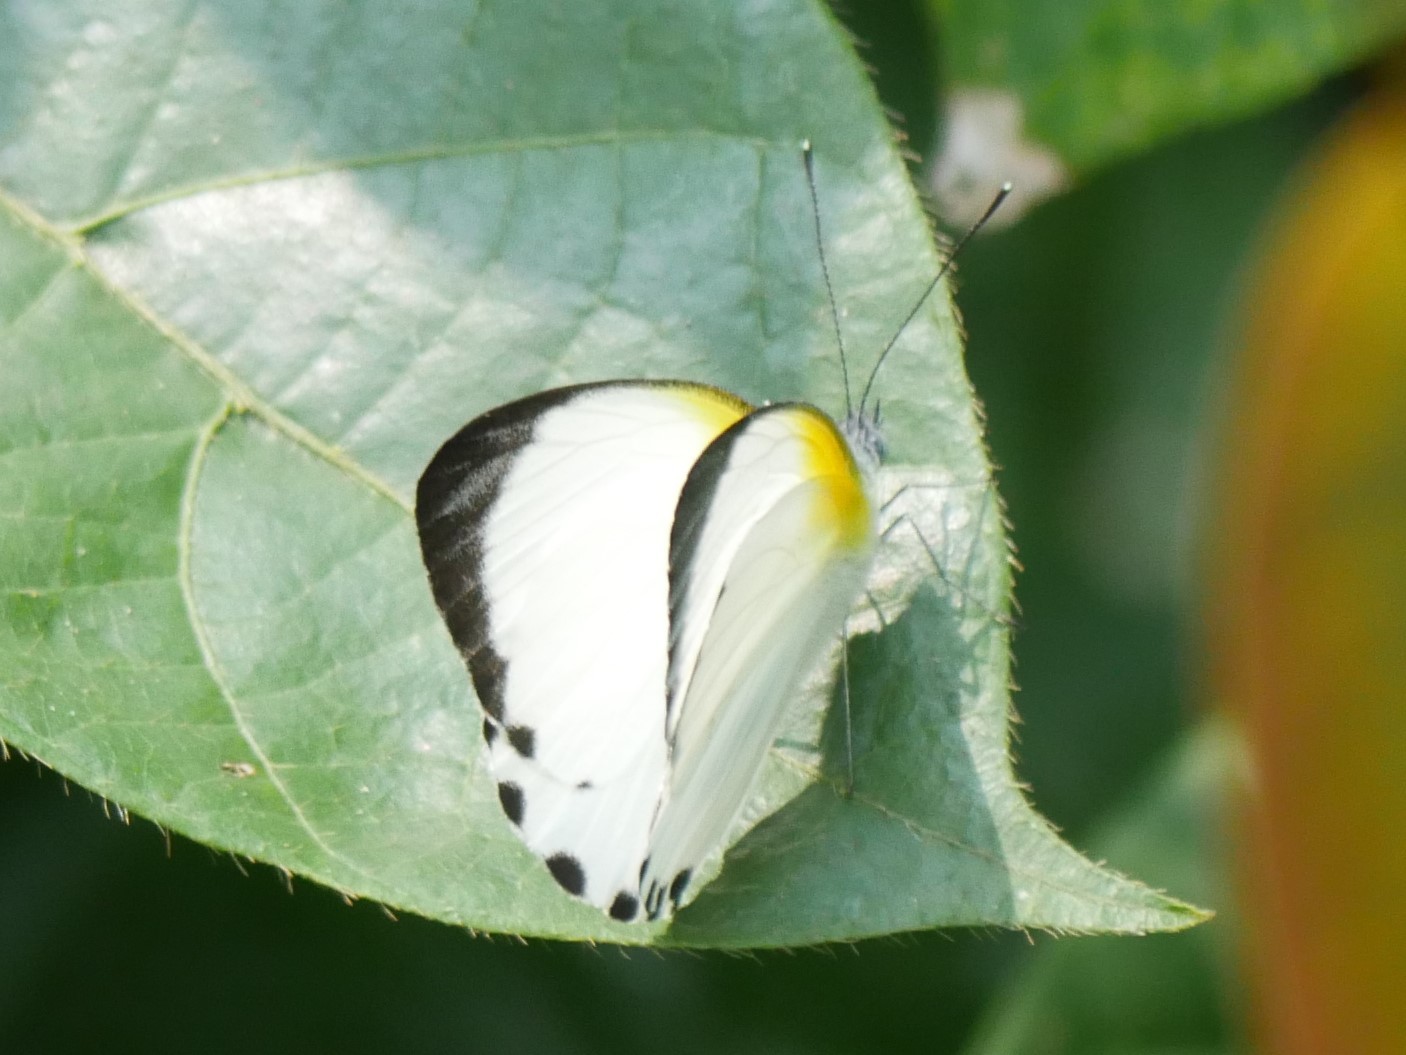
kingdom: Animalia
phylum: Arthropoda
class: Insecta
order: Lepidoptera
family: Pieridae
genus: Appias
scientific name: Appias
